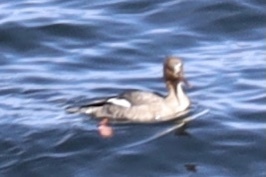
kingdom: Animalia
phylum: Chordata
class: Aves
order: Anseriformes
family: Anatidae
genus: Mergus
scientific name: Mergus serrator
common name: Red-breasted merganser
